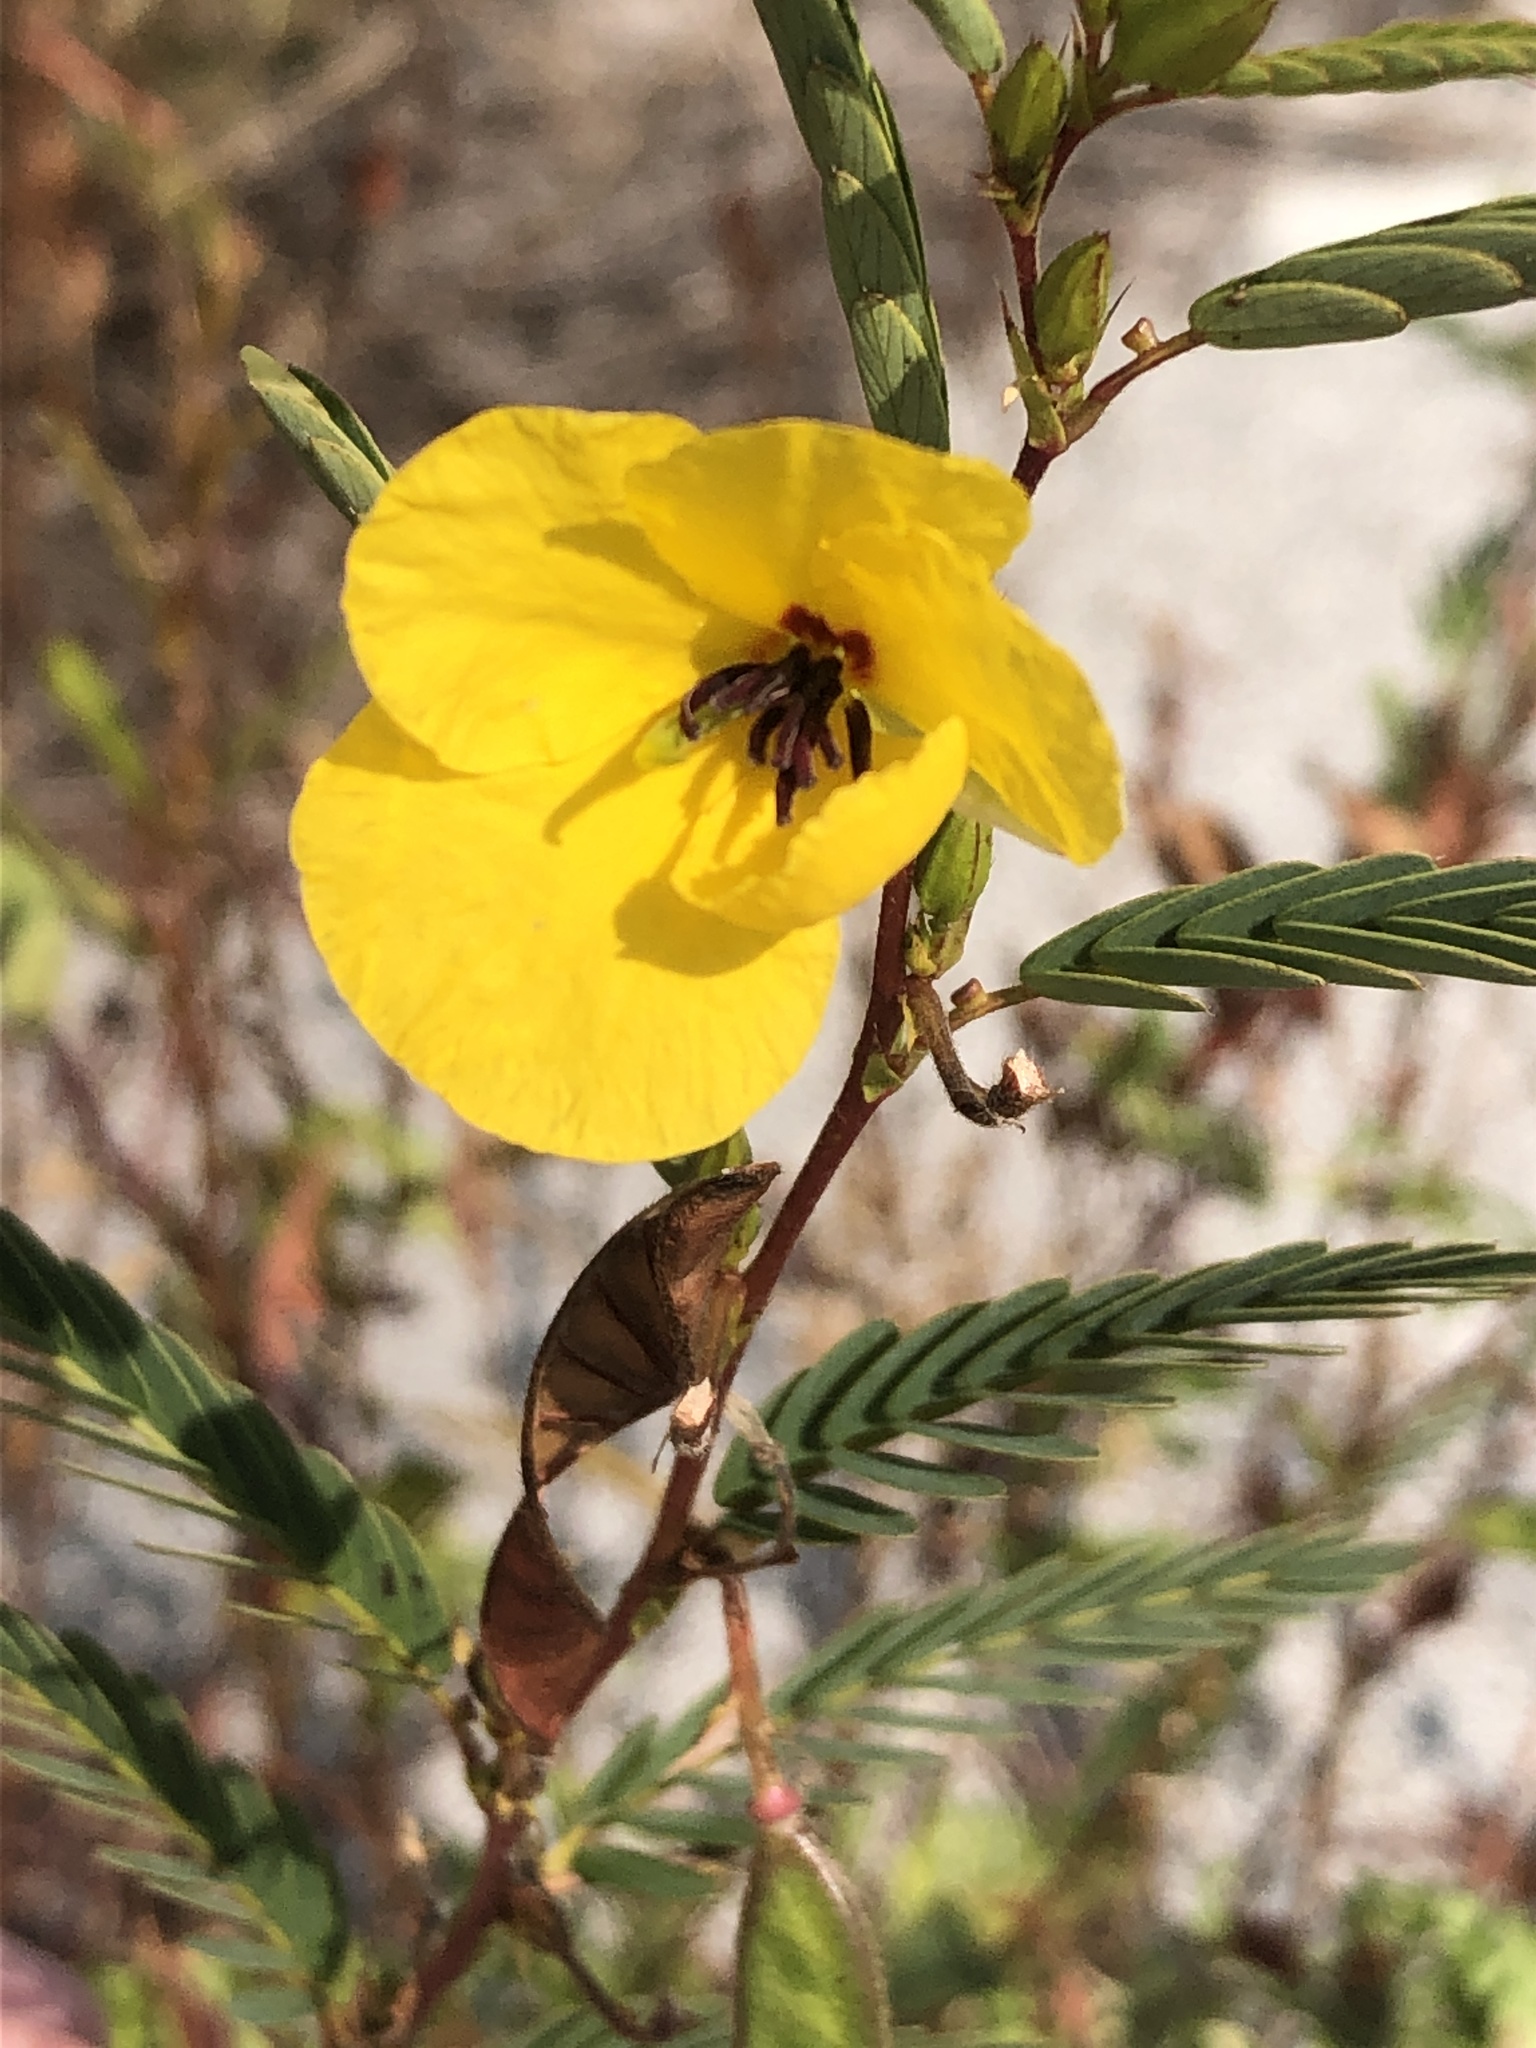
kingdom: Plantae
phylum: Tracheophyta
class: Magnoliopsida
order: Fabales
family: Fabaceae
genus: Chamaecrista
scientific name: Chamaecrista fasciculata
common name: Golden cassia
